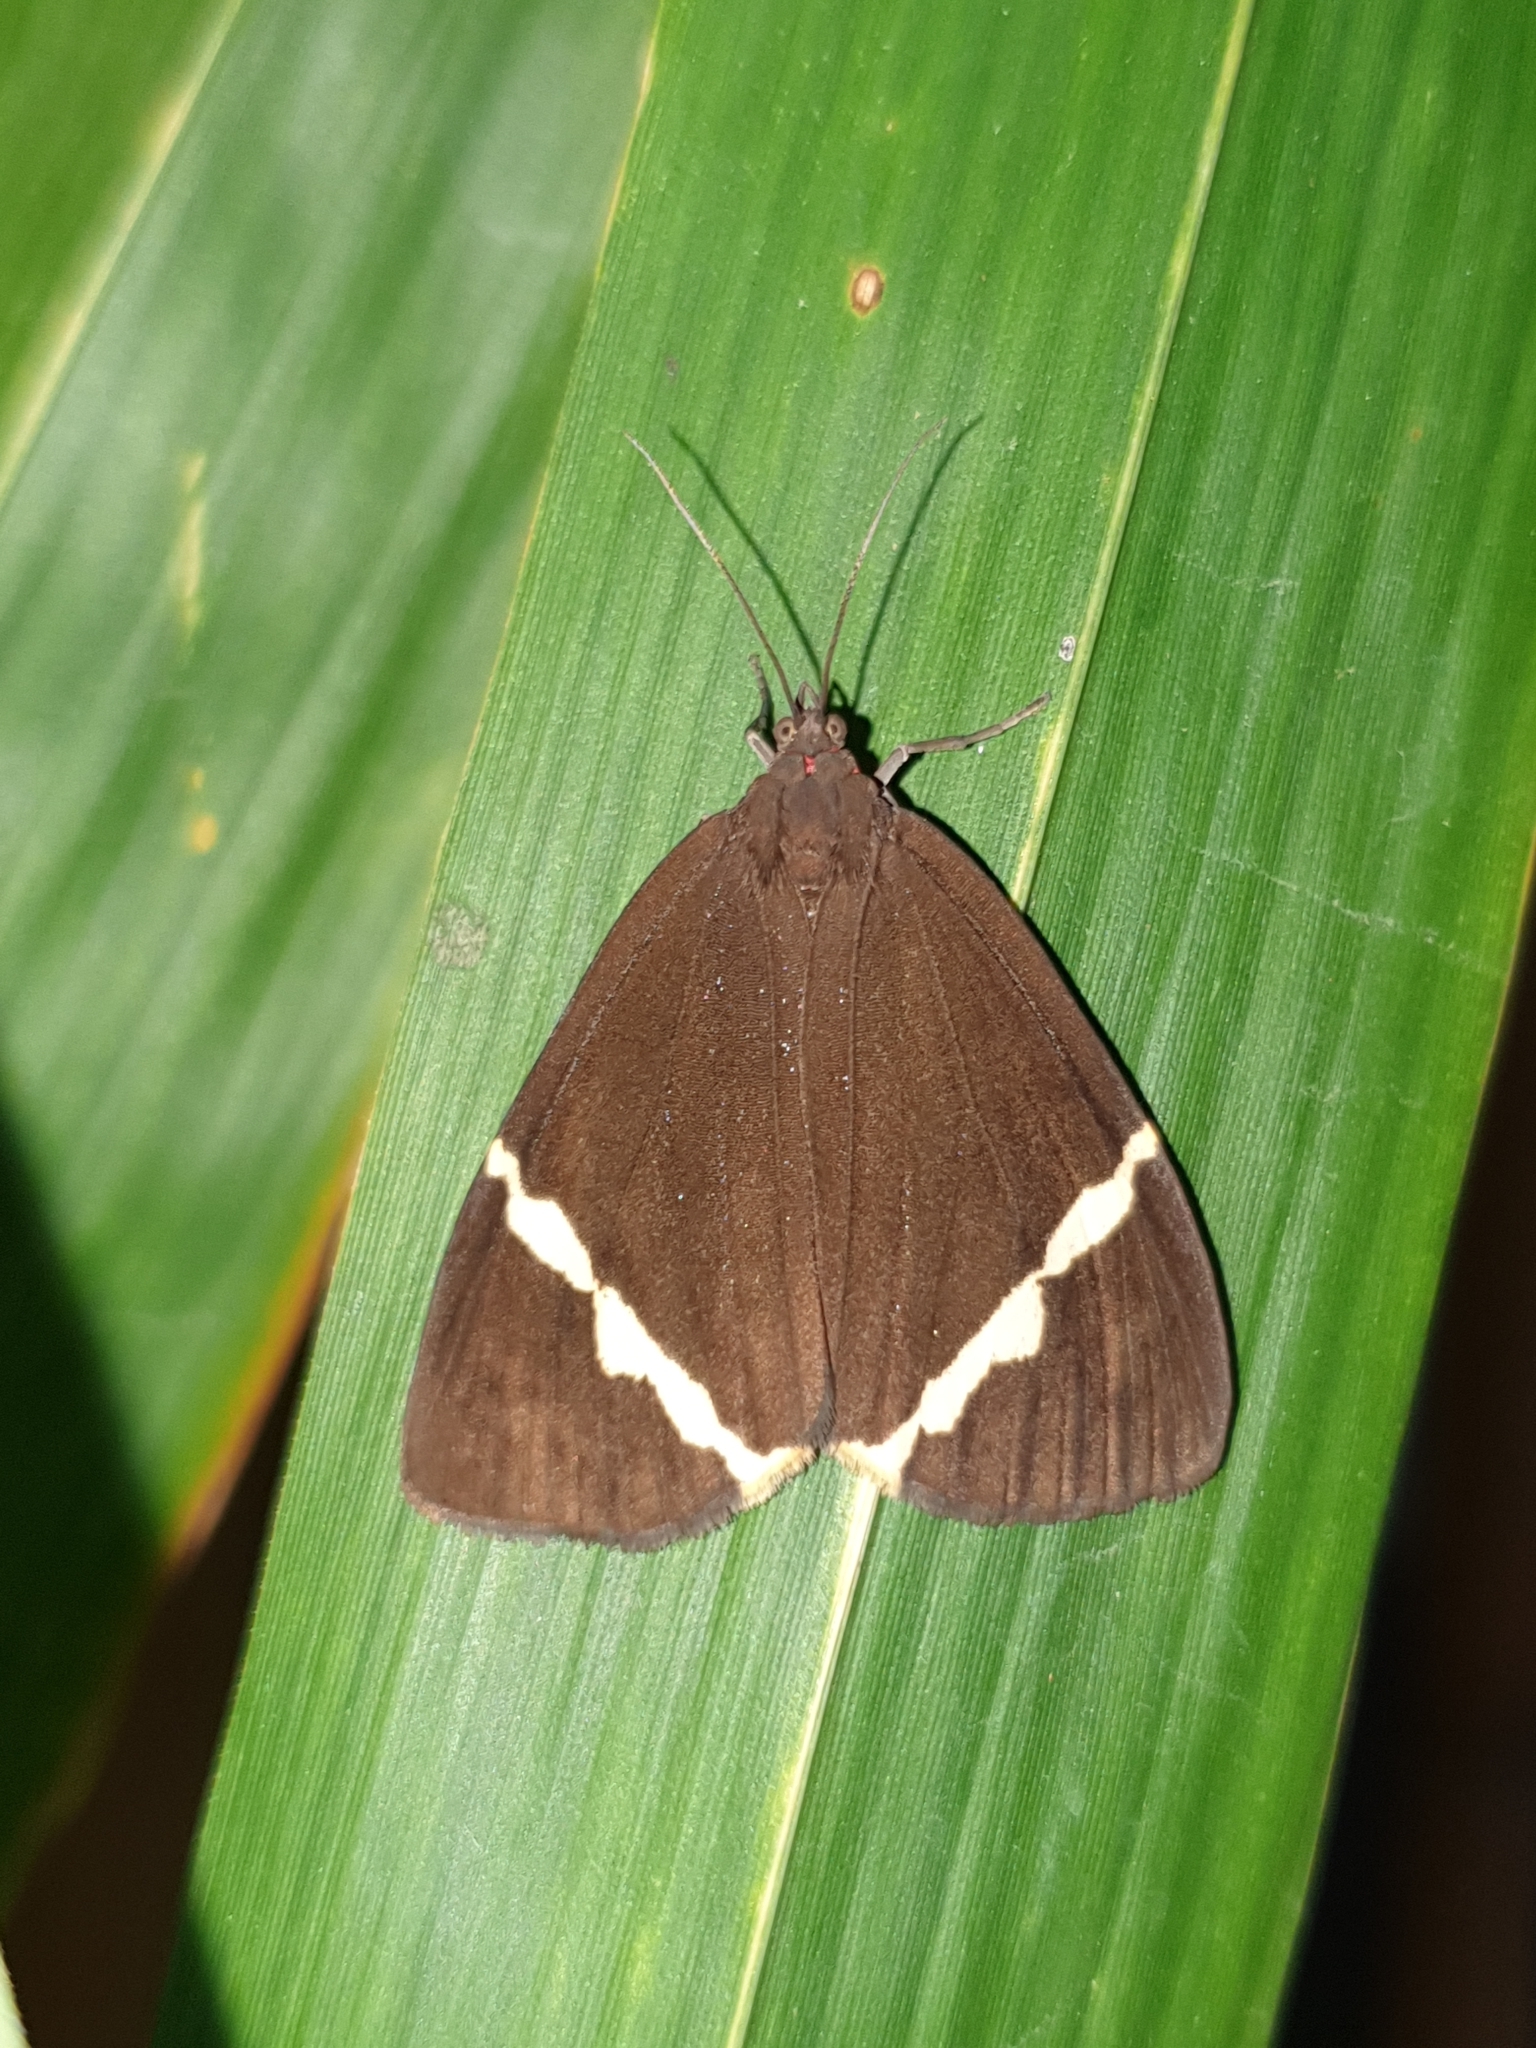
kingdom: Animalia
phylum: Arthropoda
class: Insecta
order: Lepidoptera
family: Erebidae
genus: Curoba
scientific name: Curoba sangarida
